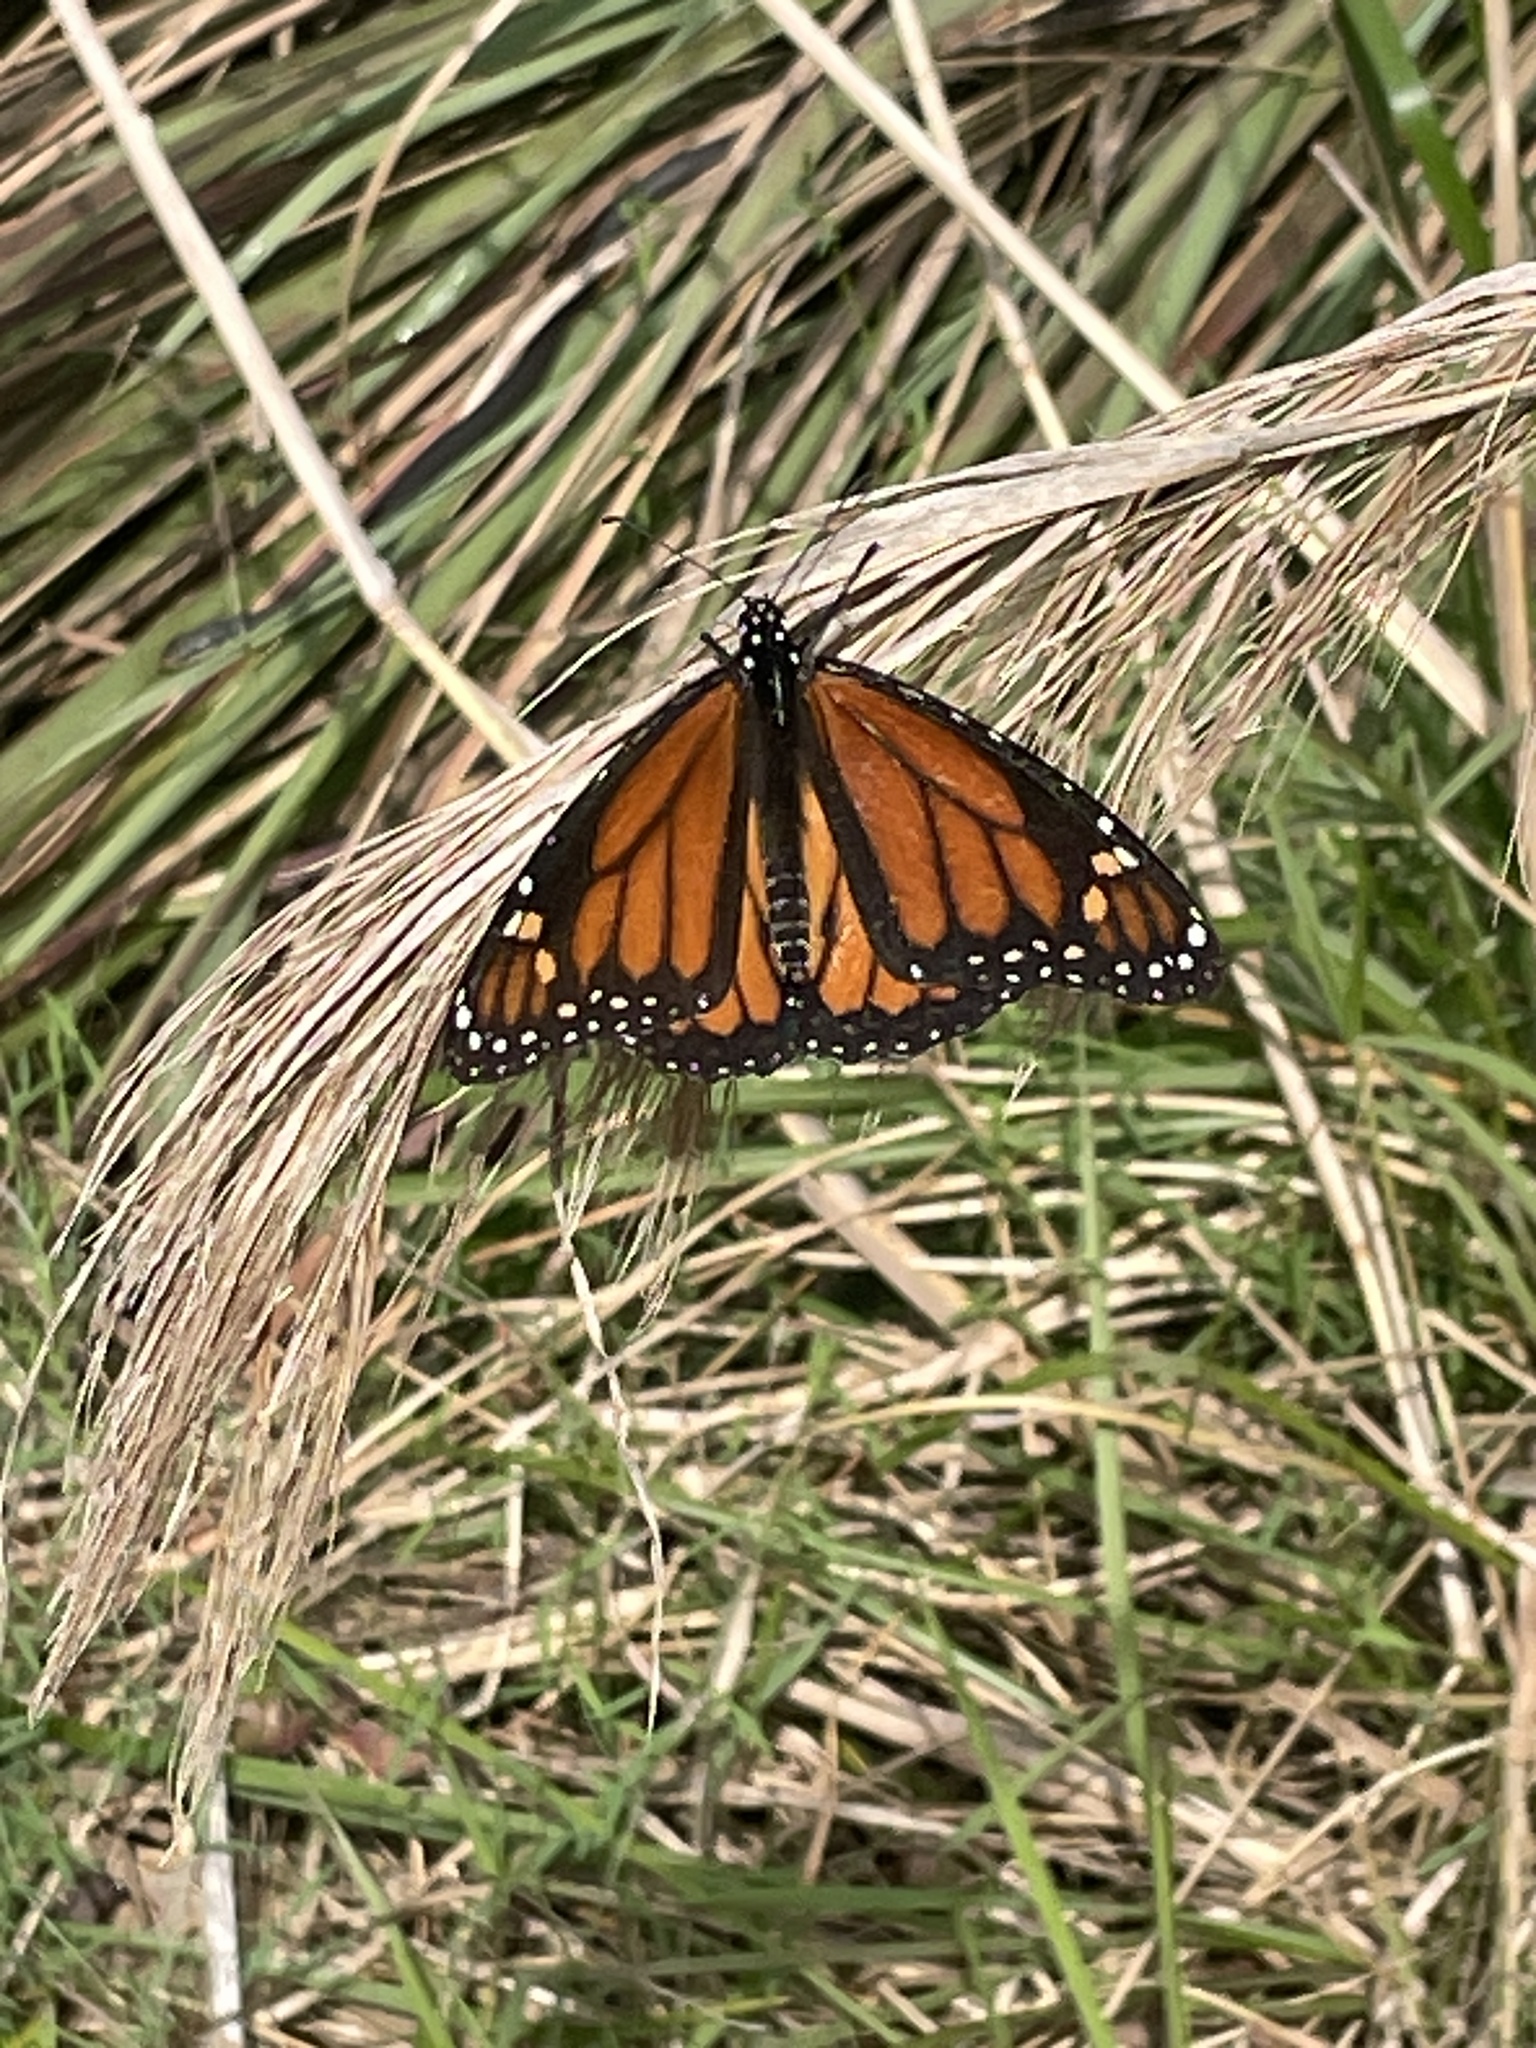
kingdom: Animalia
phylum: Arthropoda
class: Insecta
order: Lepidoptera
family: Nymphalidae
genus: Danaus
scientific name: Danaus plexippus
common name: Monarch
